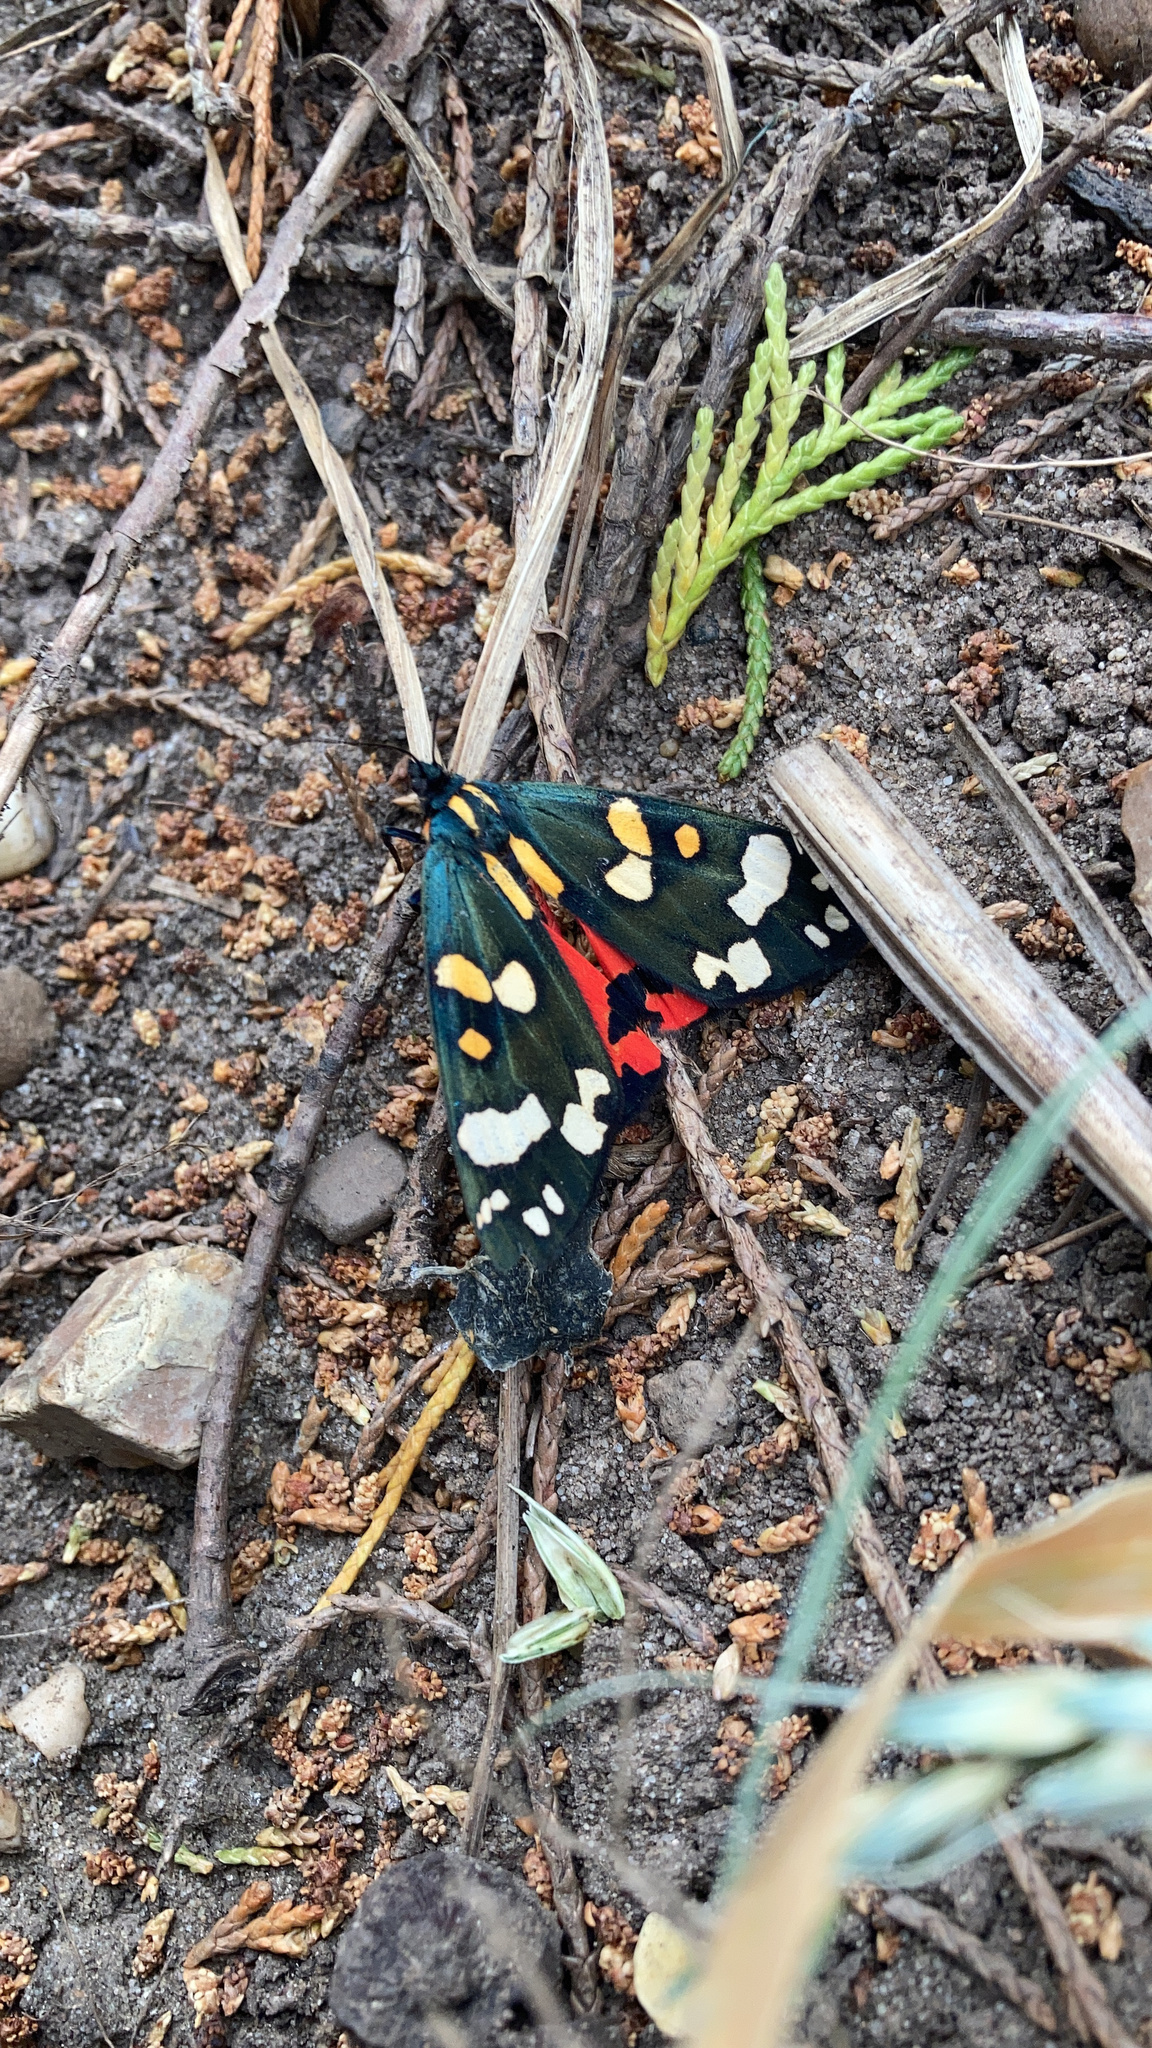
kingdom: Animalia
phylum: Arthropoda
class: Insecta
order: Lepidoptera
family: Erebidae
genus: Callimorpha
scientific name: Callimorpha dominula
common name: Scarlet tiger
